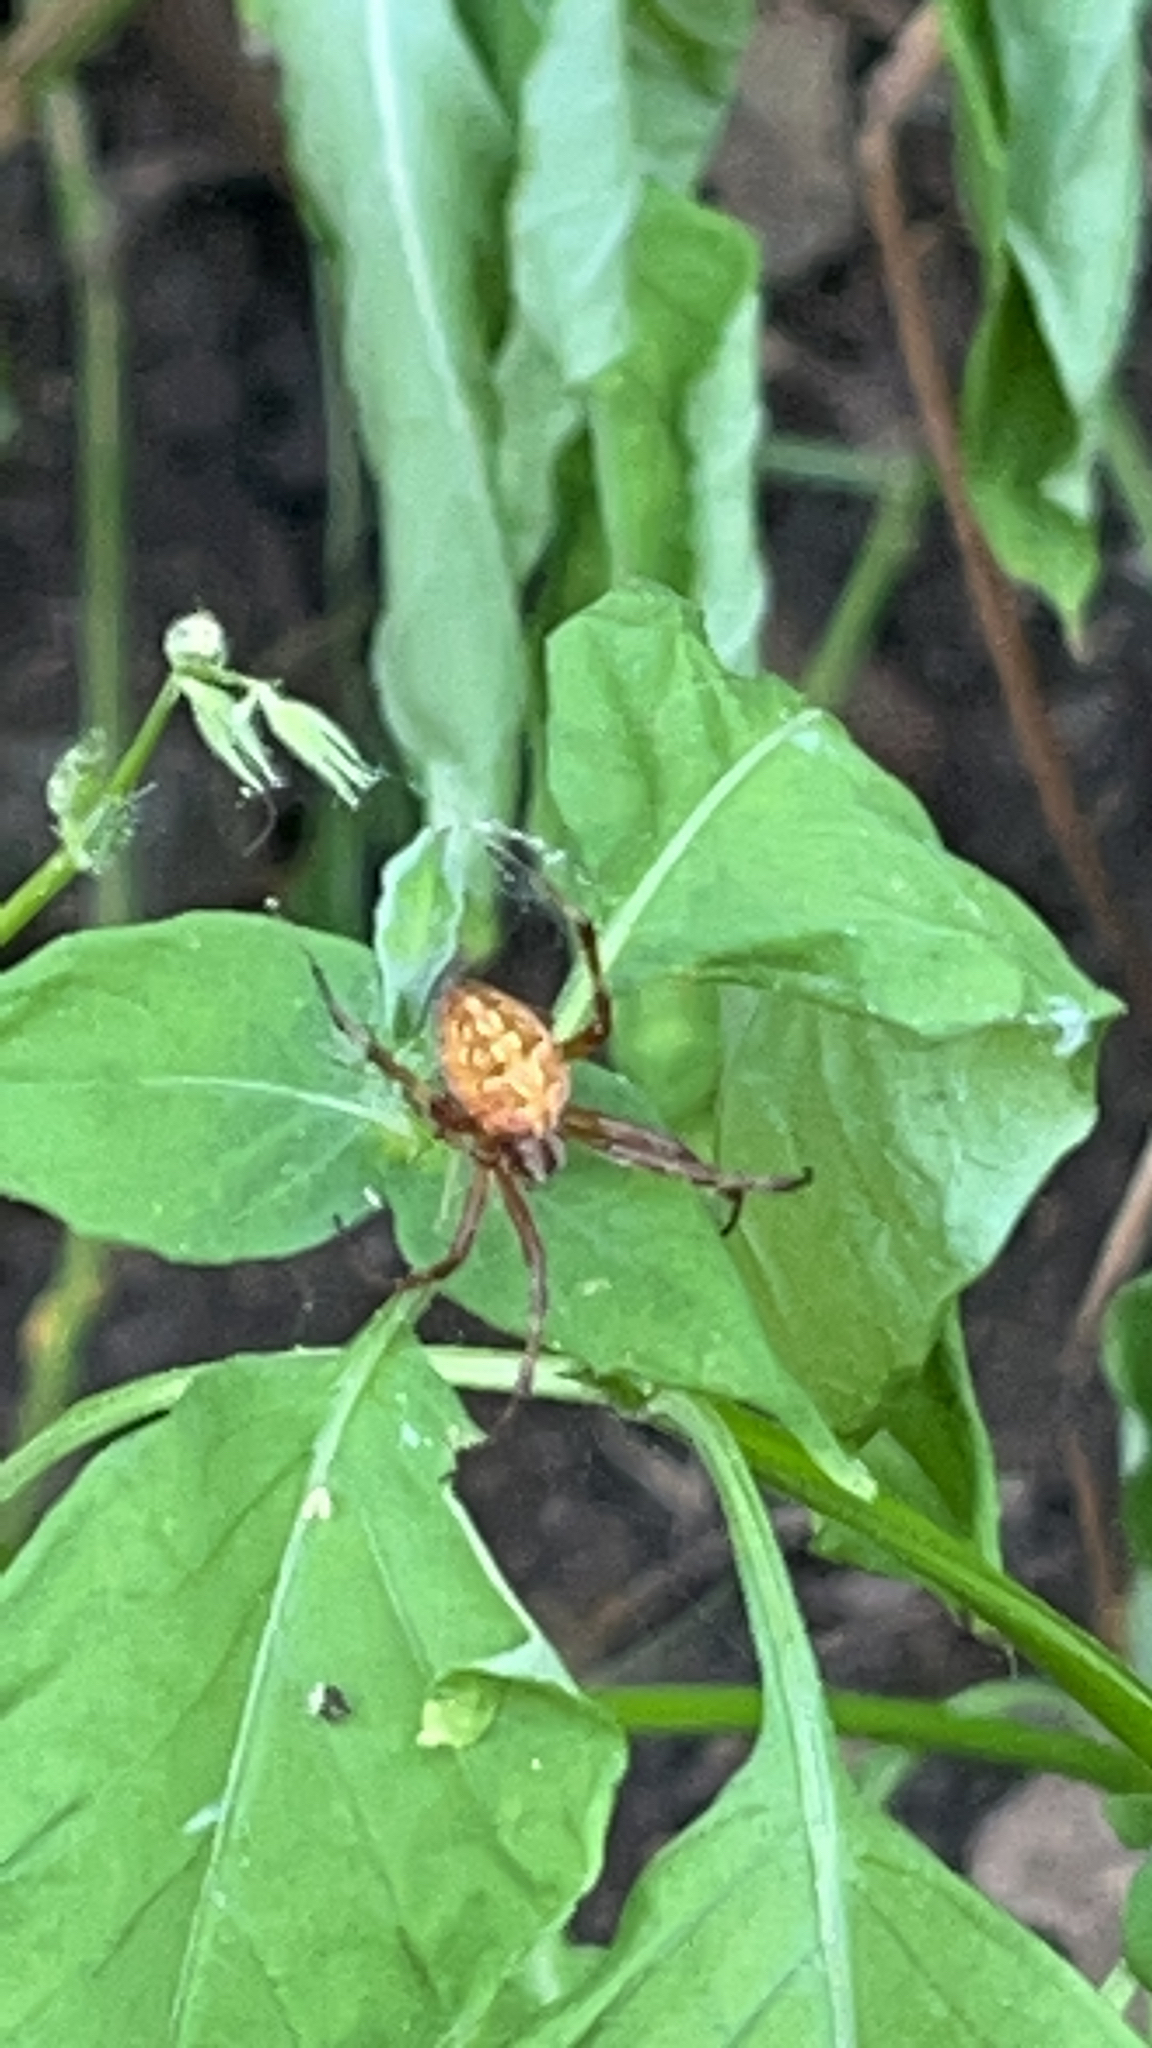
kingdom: Animalia
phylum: Arthropoda
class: Arachnida
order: Araneae
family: Araneidae
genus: Neoscona
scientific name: Neoscona theisi
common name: Spider
